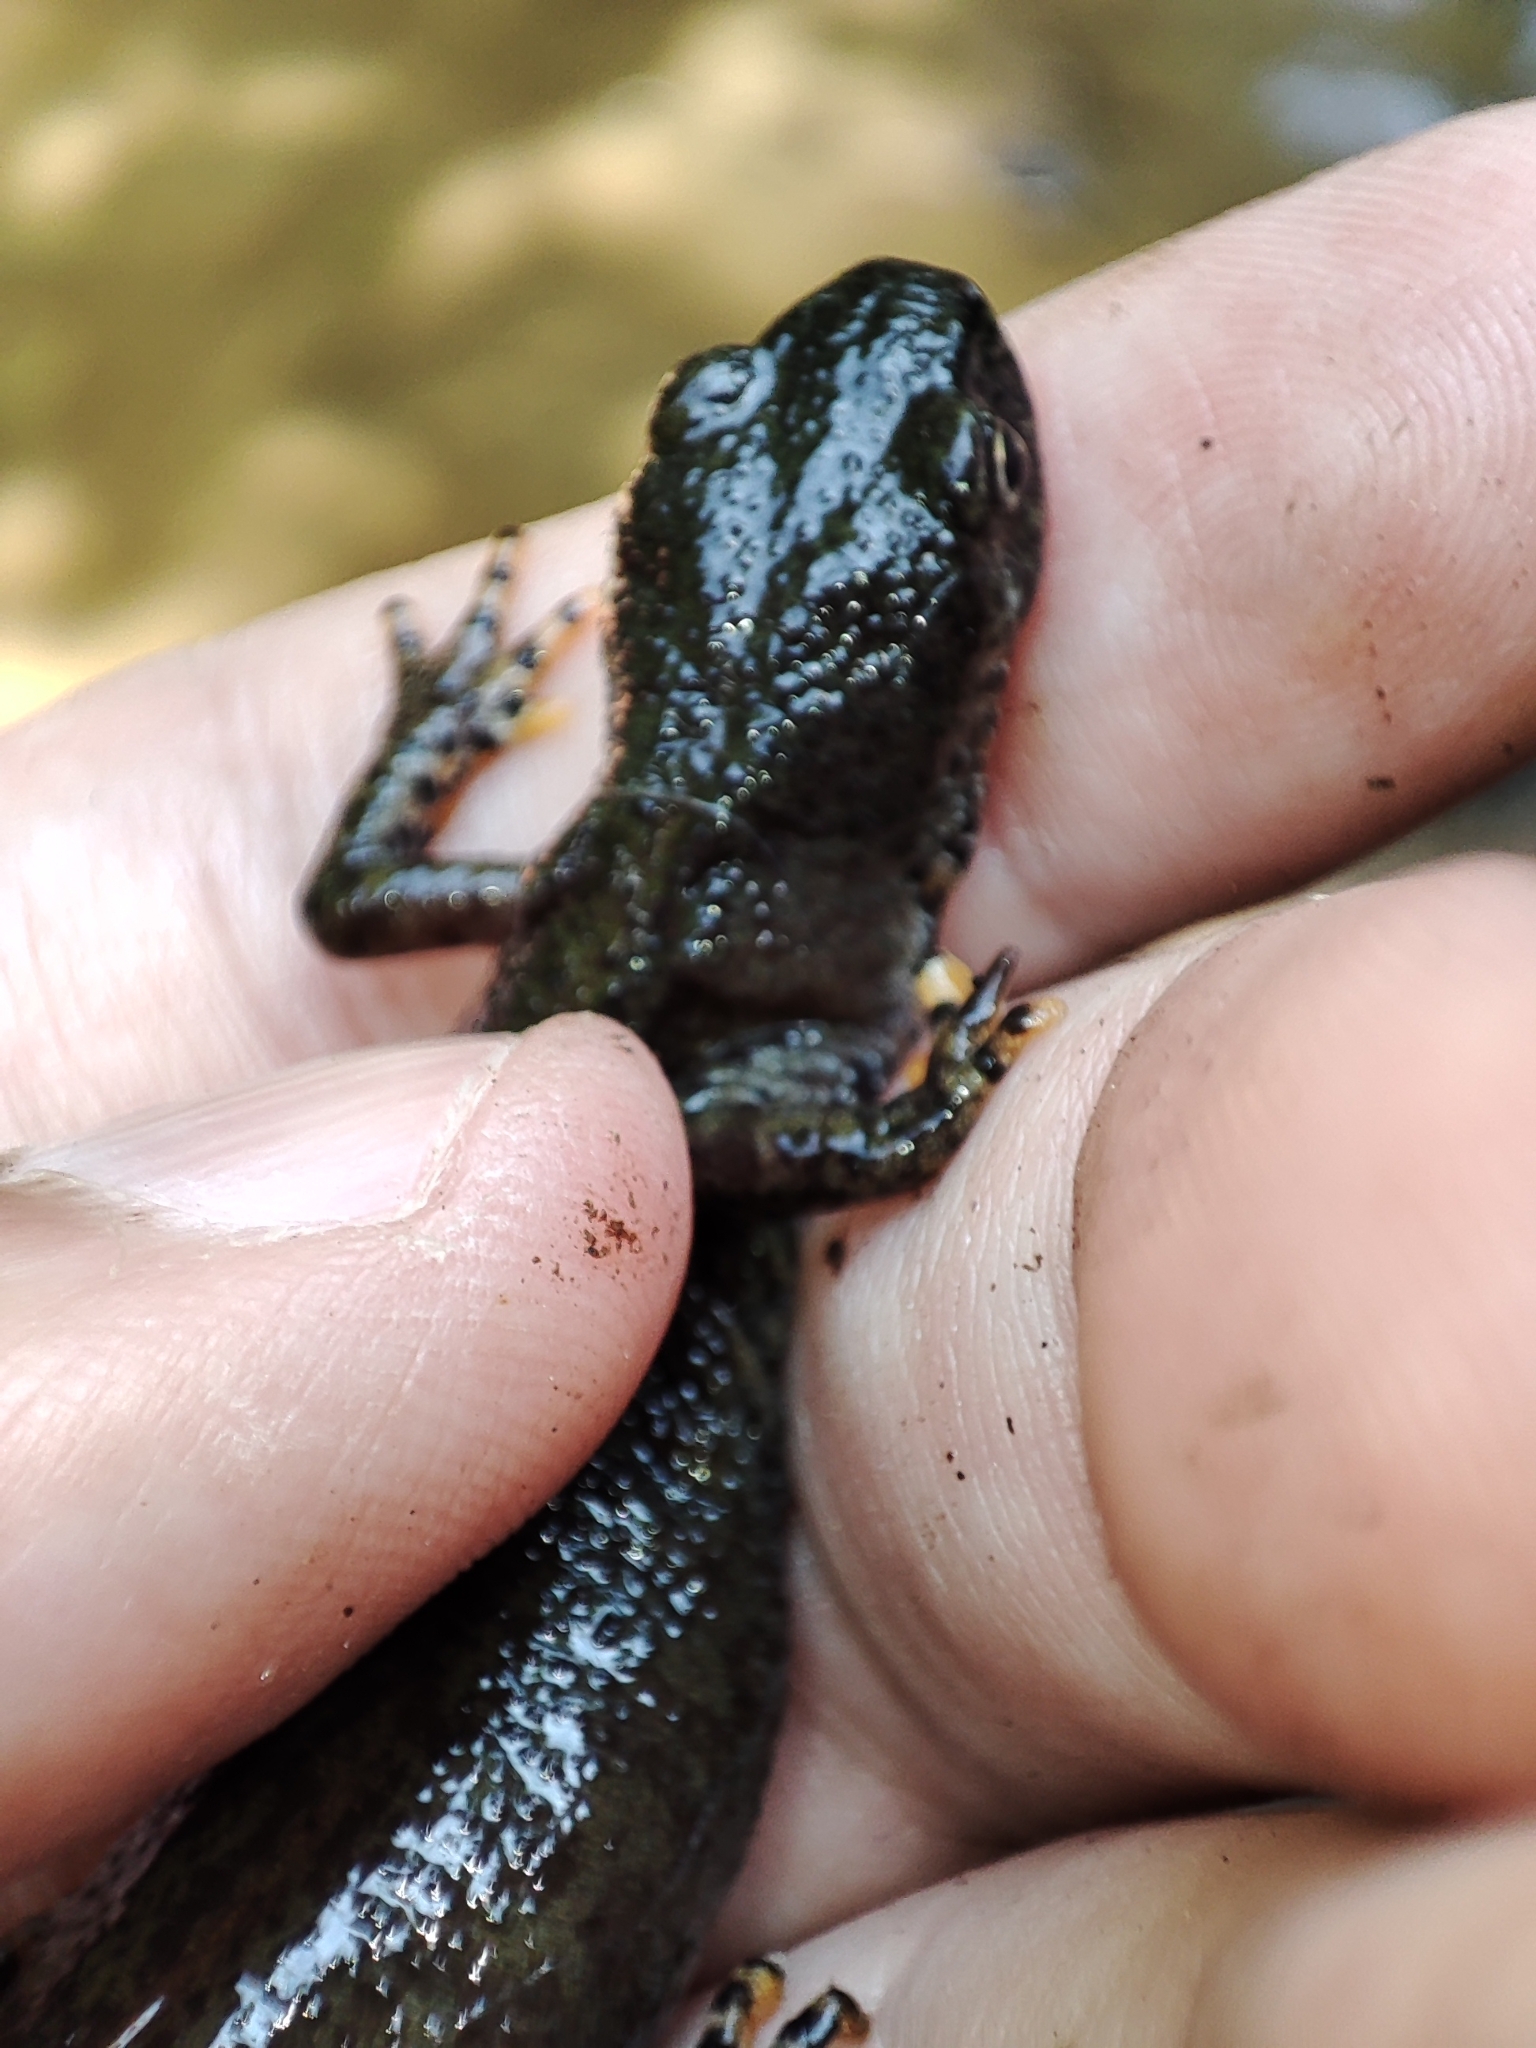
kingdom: Animalia
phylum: Chordata
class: Amphibia
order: Caudata
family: Salamandridae
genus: Ichthyosaura
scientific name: Ichthyosaura alpestris
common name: Alpine newt
